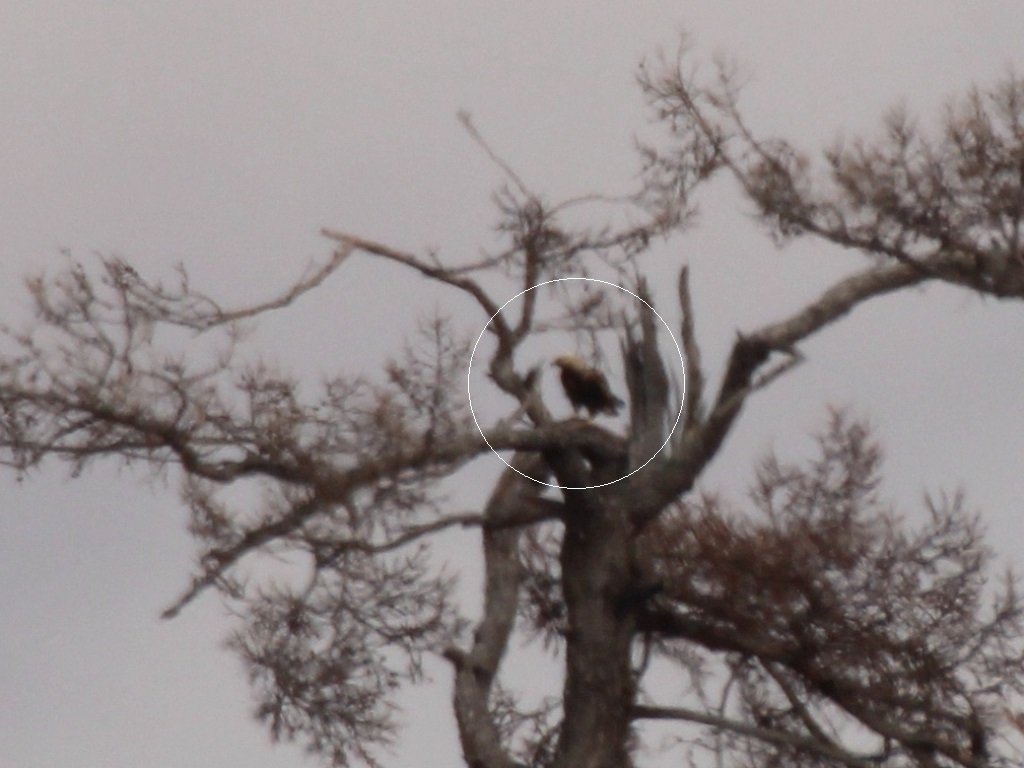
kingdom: Animalia
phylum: Chordata
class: Aves
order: Accipitriformes
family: Accipitridae
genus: Aquila
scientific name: Aquila heliaca
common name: Eastern imperial eagle
